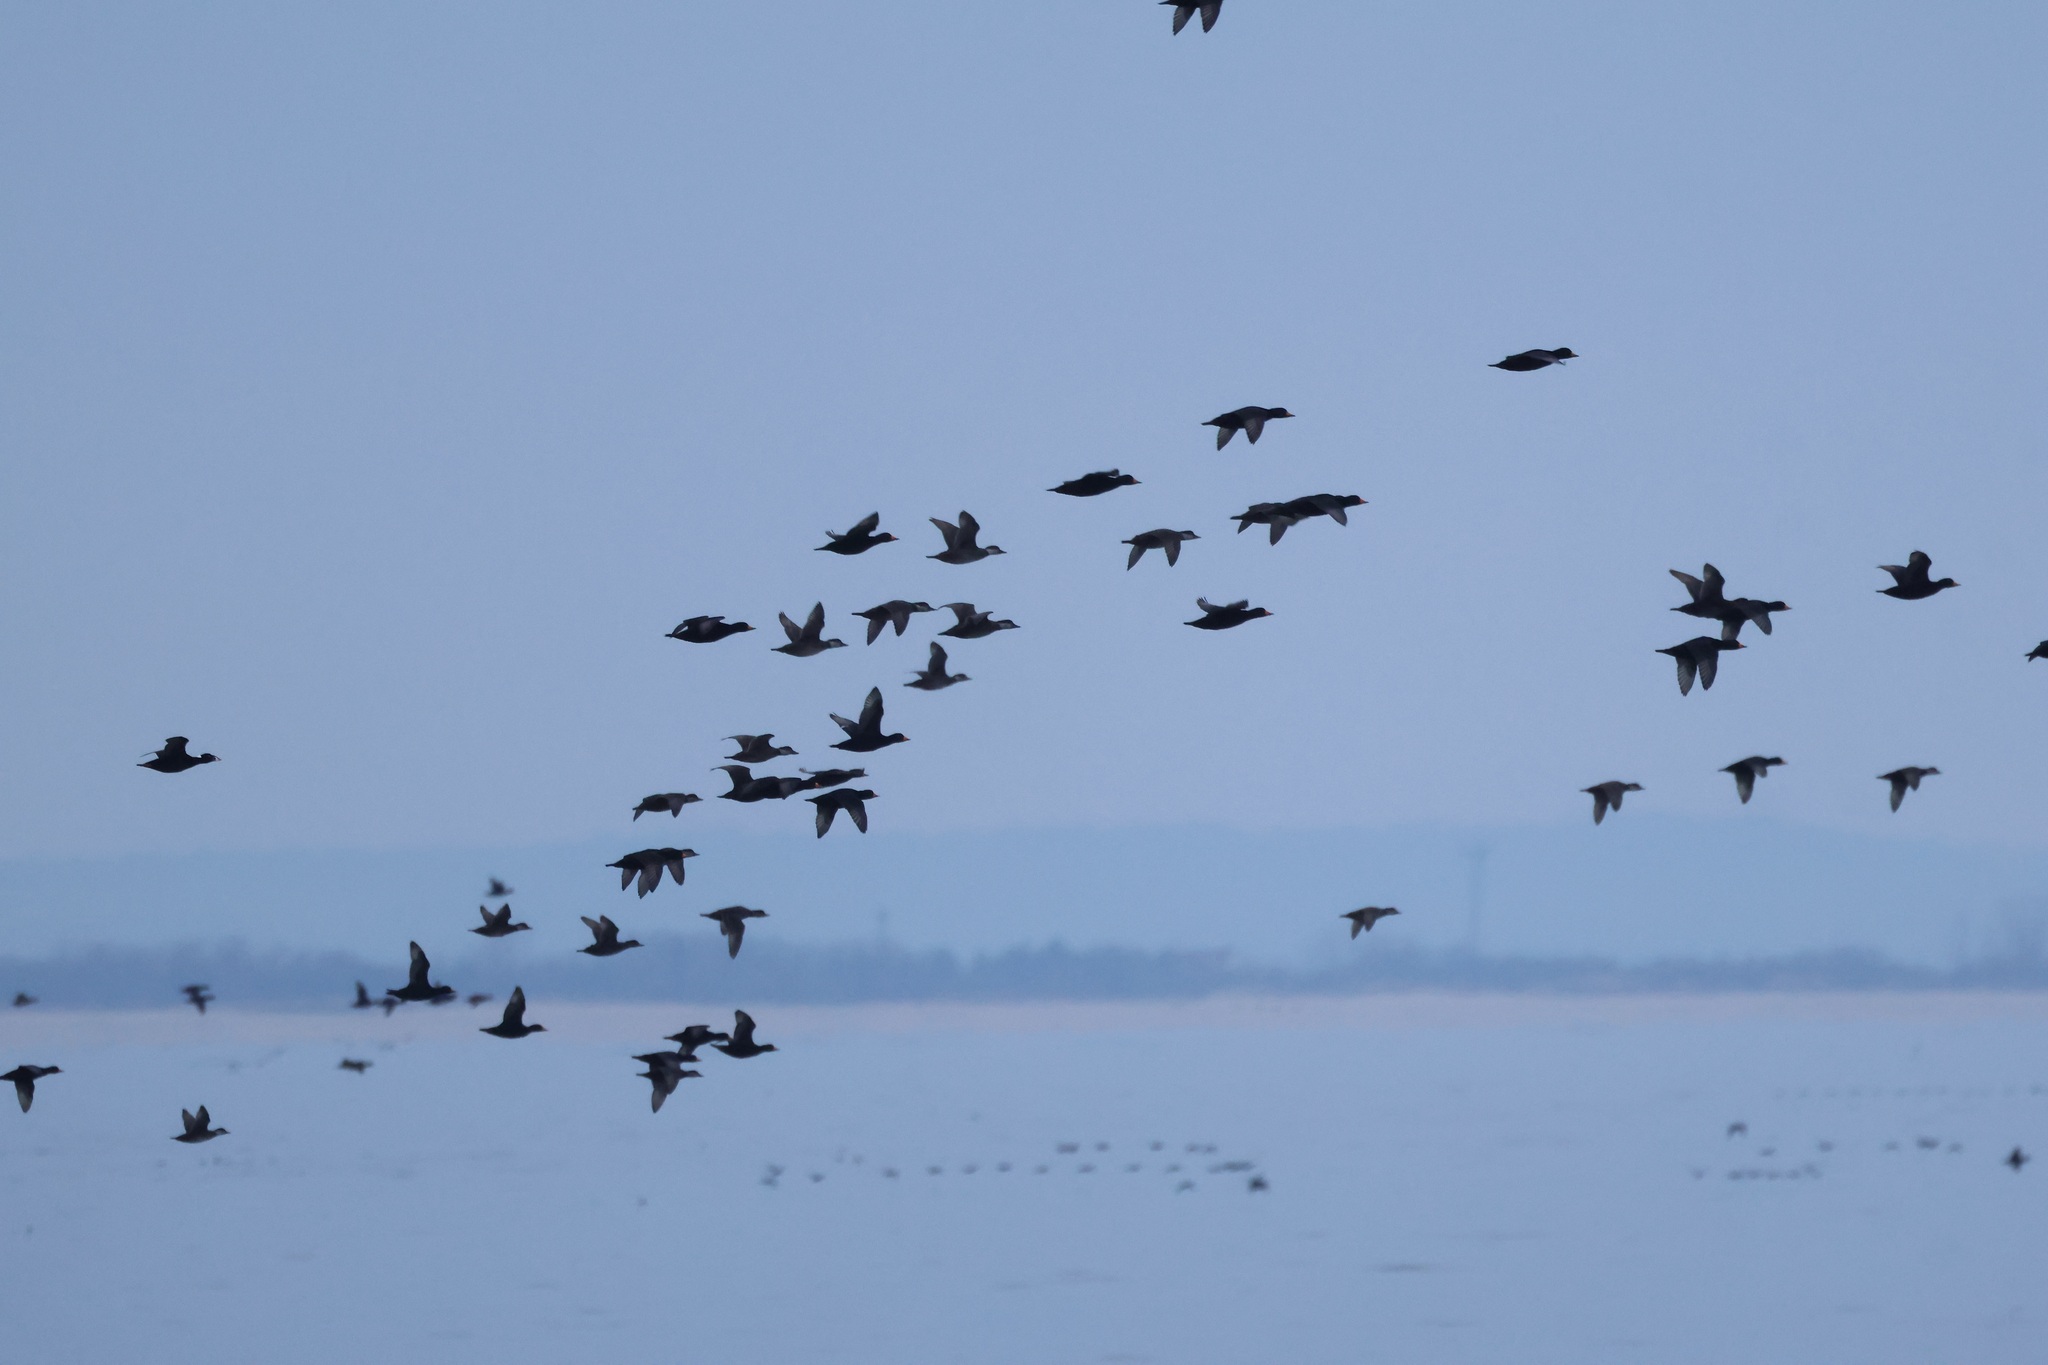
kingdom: Animalia
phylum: Chordata
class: Aves
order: Anseriformes
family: Anatidae
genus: Melanitta
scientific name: Melanitta americana
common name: Black scoter
